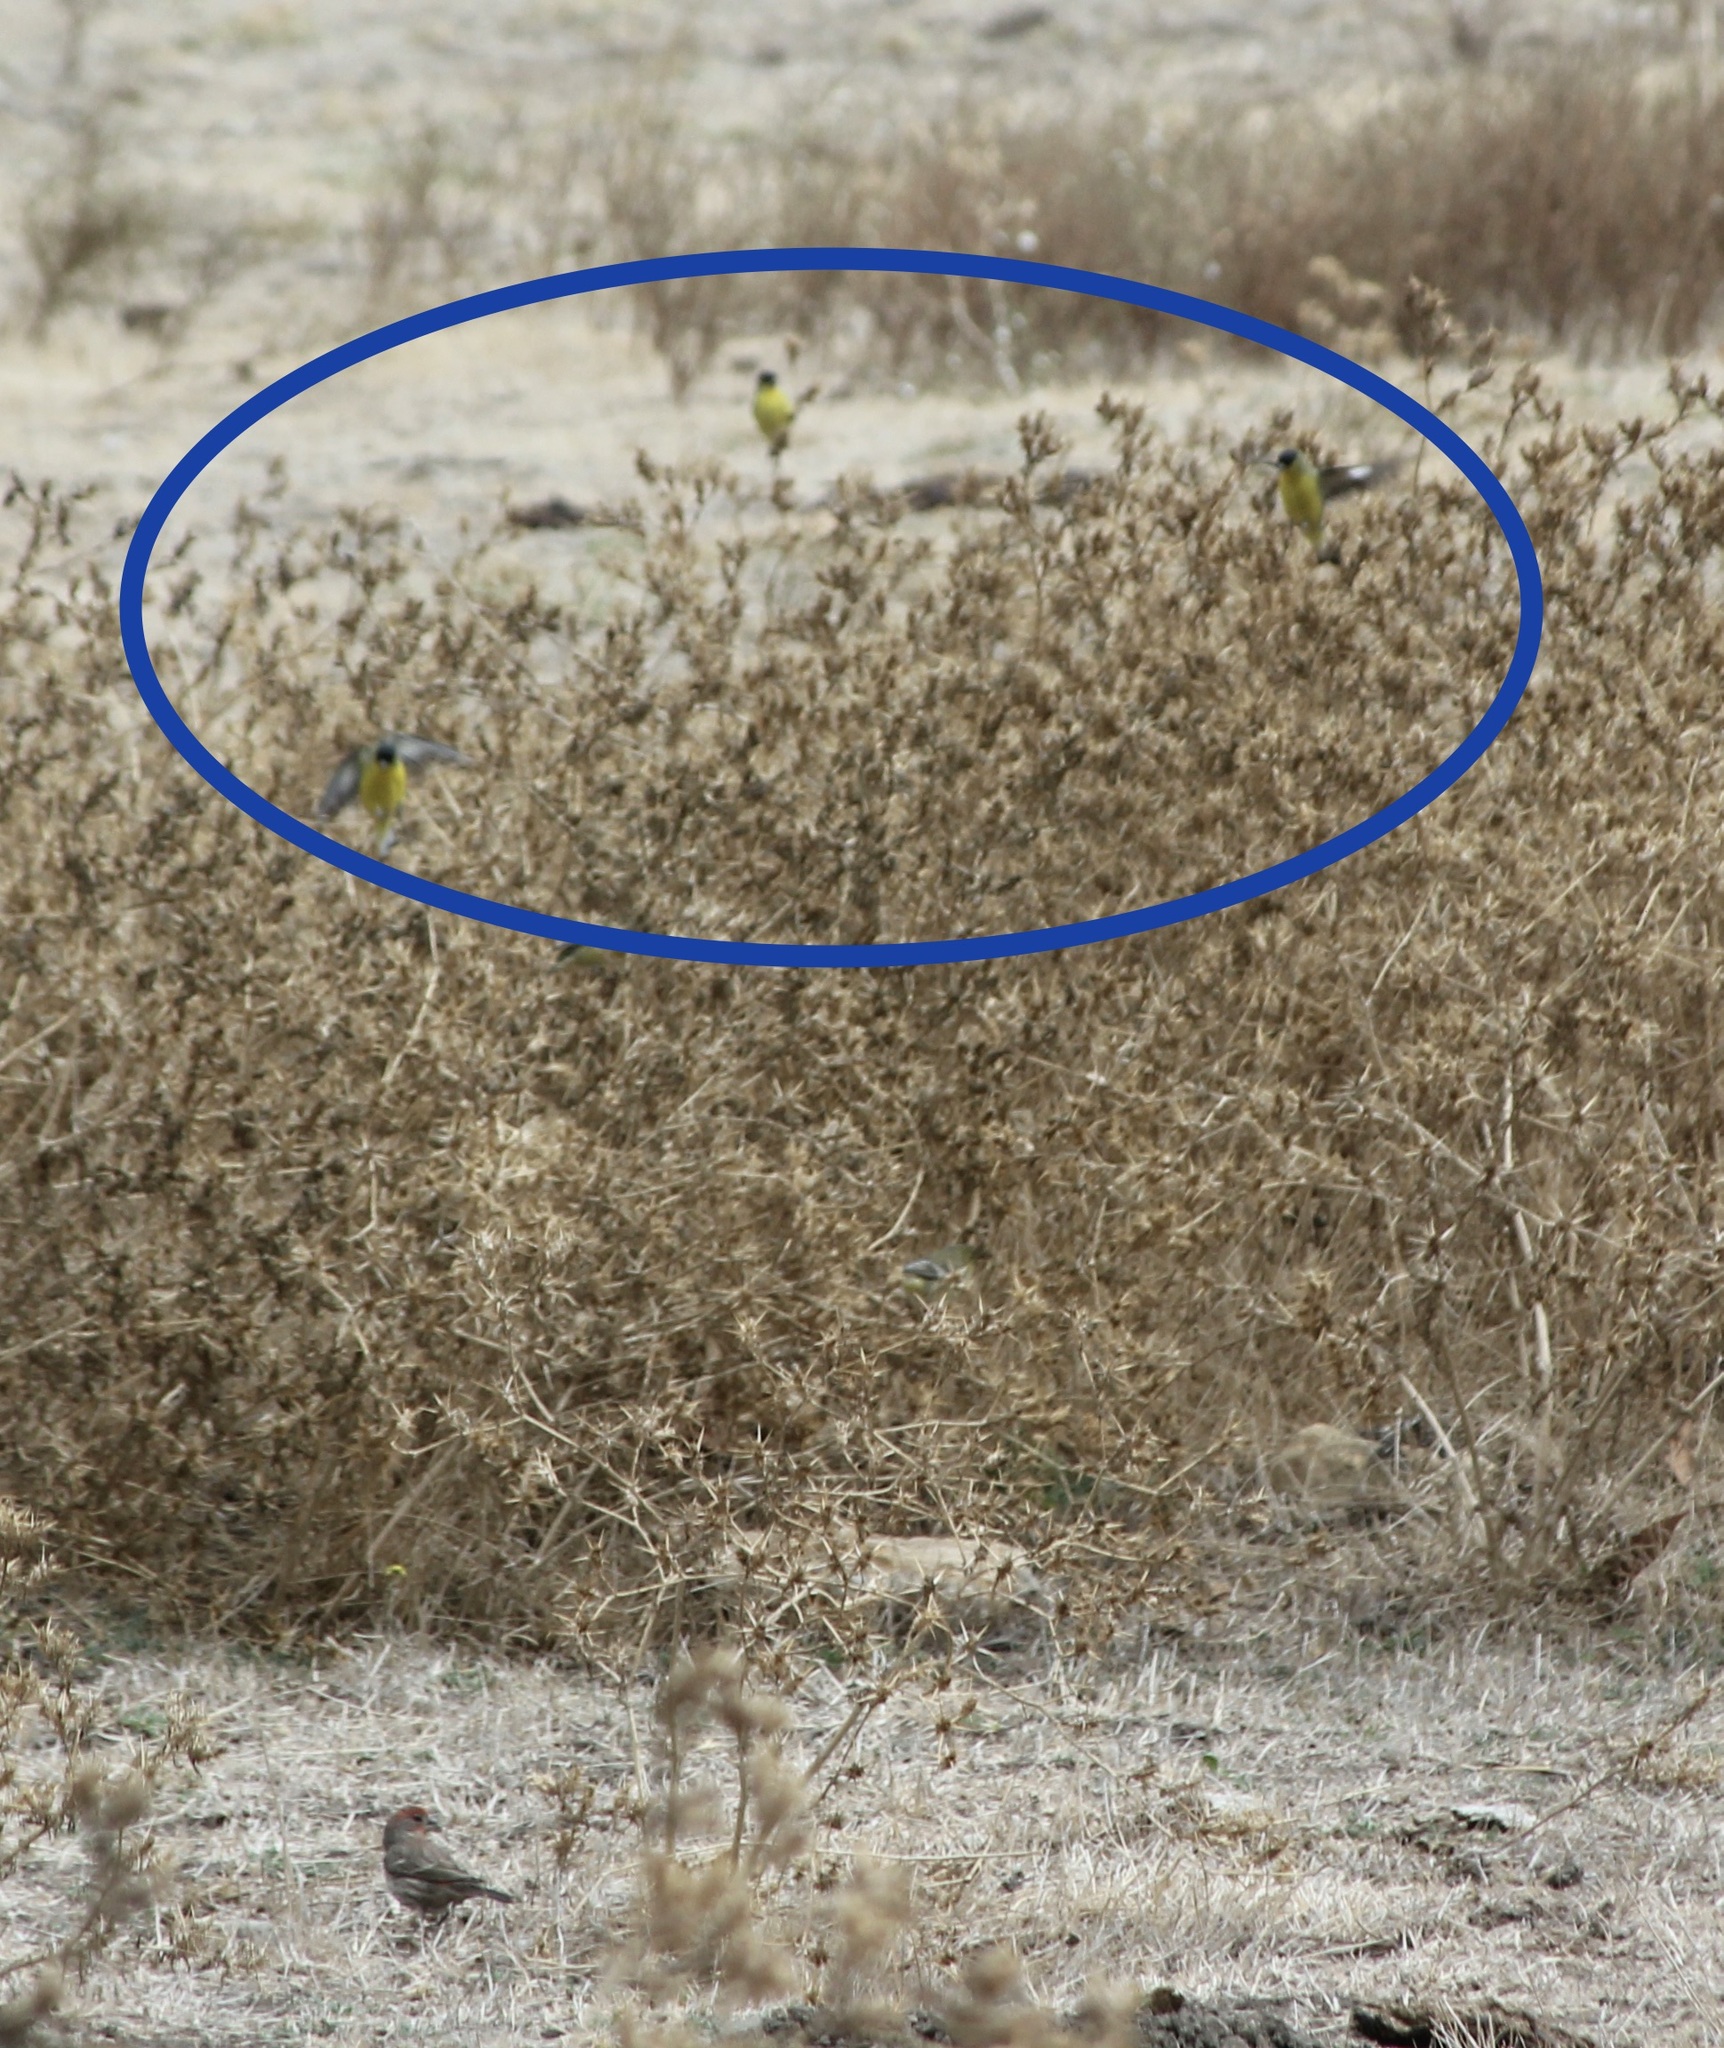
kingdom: Animalia
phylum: Chordata
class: Aves
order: Passeriformes
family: Fringillidae
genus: Spinus
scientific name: Spinus psaltria
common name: Lesser goldfinch
